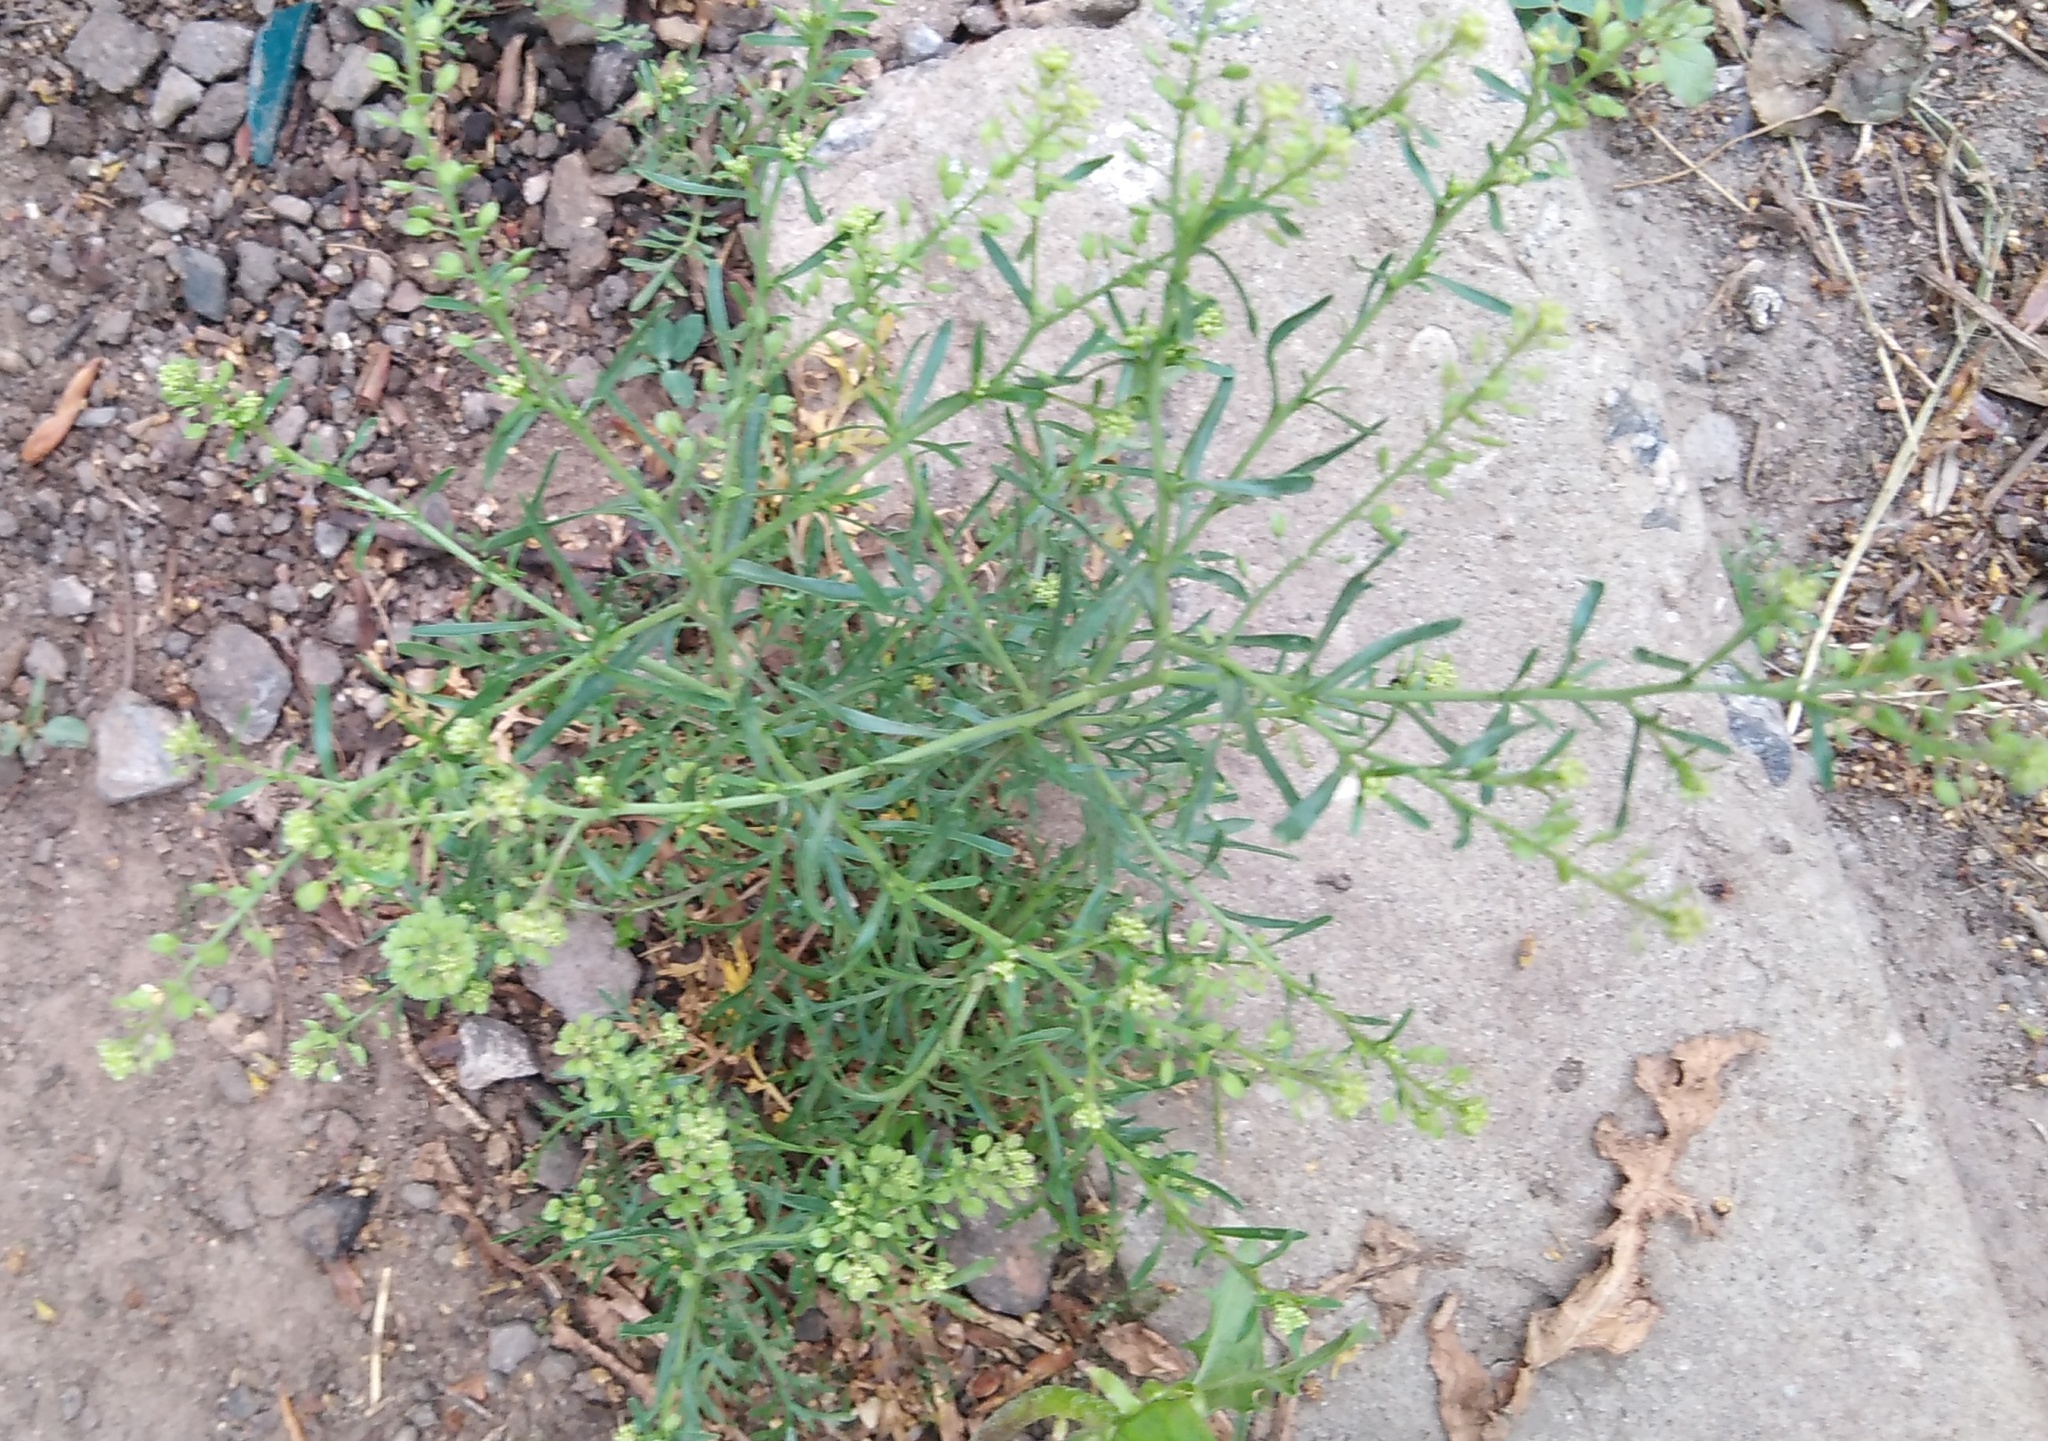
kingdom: Plantae
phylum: Tracheophyta
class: Magnoliopsida
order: Brassicales
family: Brassicaceae
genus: Lepidium
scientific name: Lepidium ruderale
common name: Narrow-leaved pepperwort
